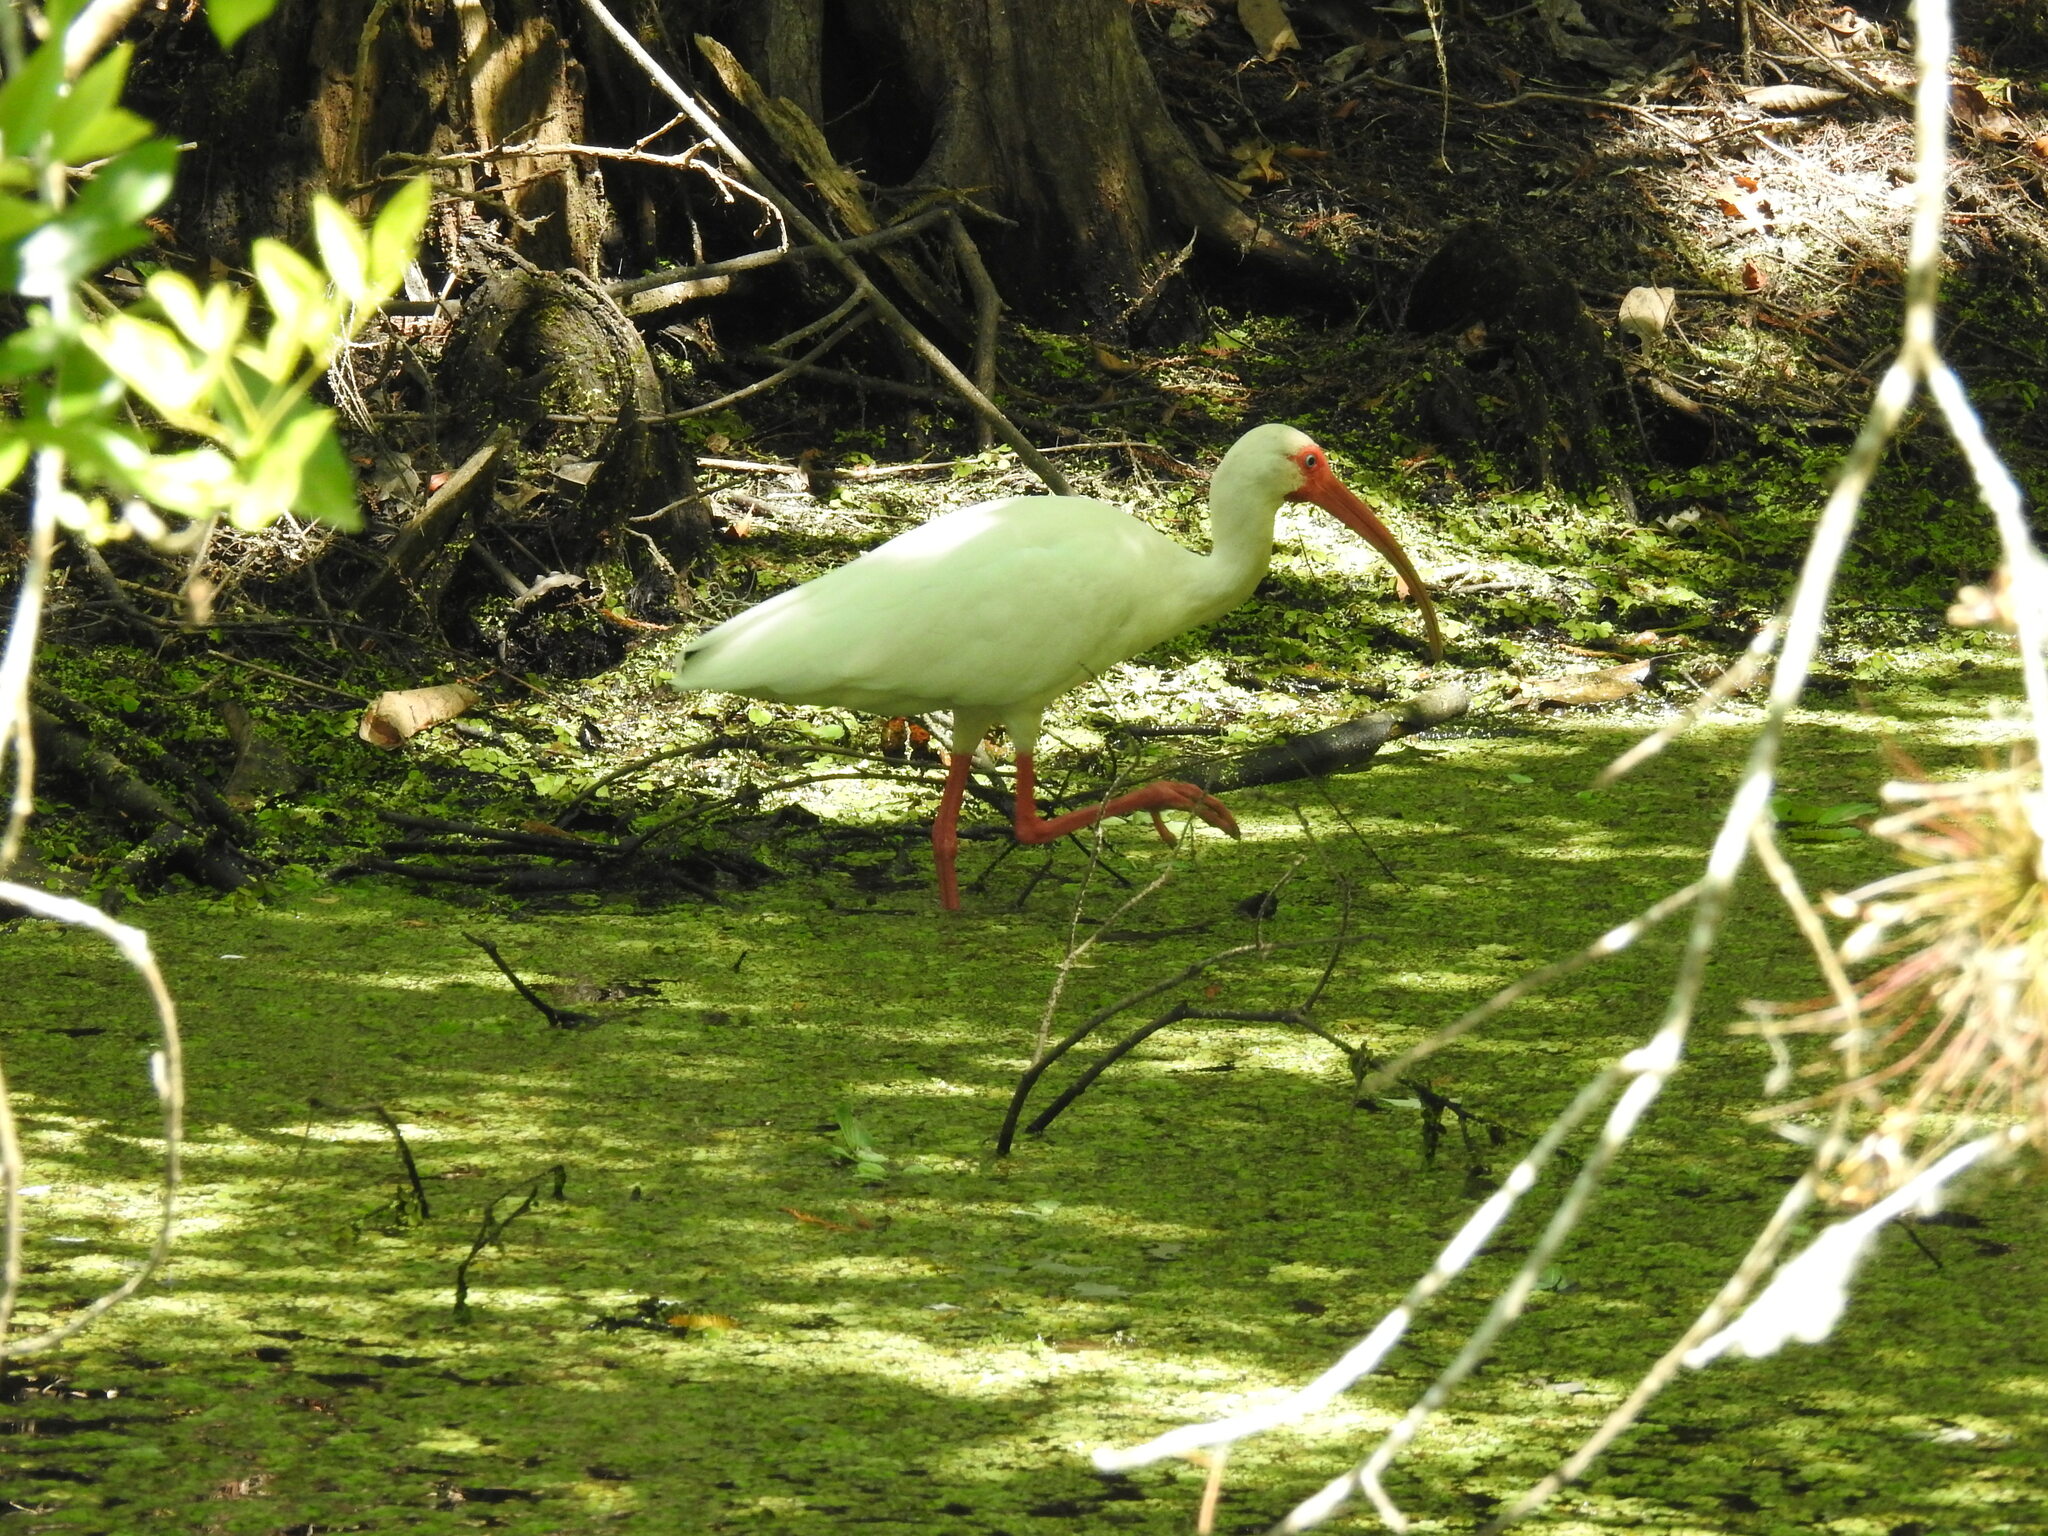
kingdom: Animalia
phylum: Chordata
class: Aves
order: Pelecaniformes
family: Threskiornithidae
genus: Eudocimus
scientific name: Eudocimus albus
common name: White ibis
